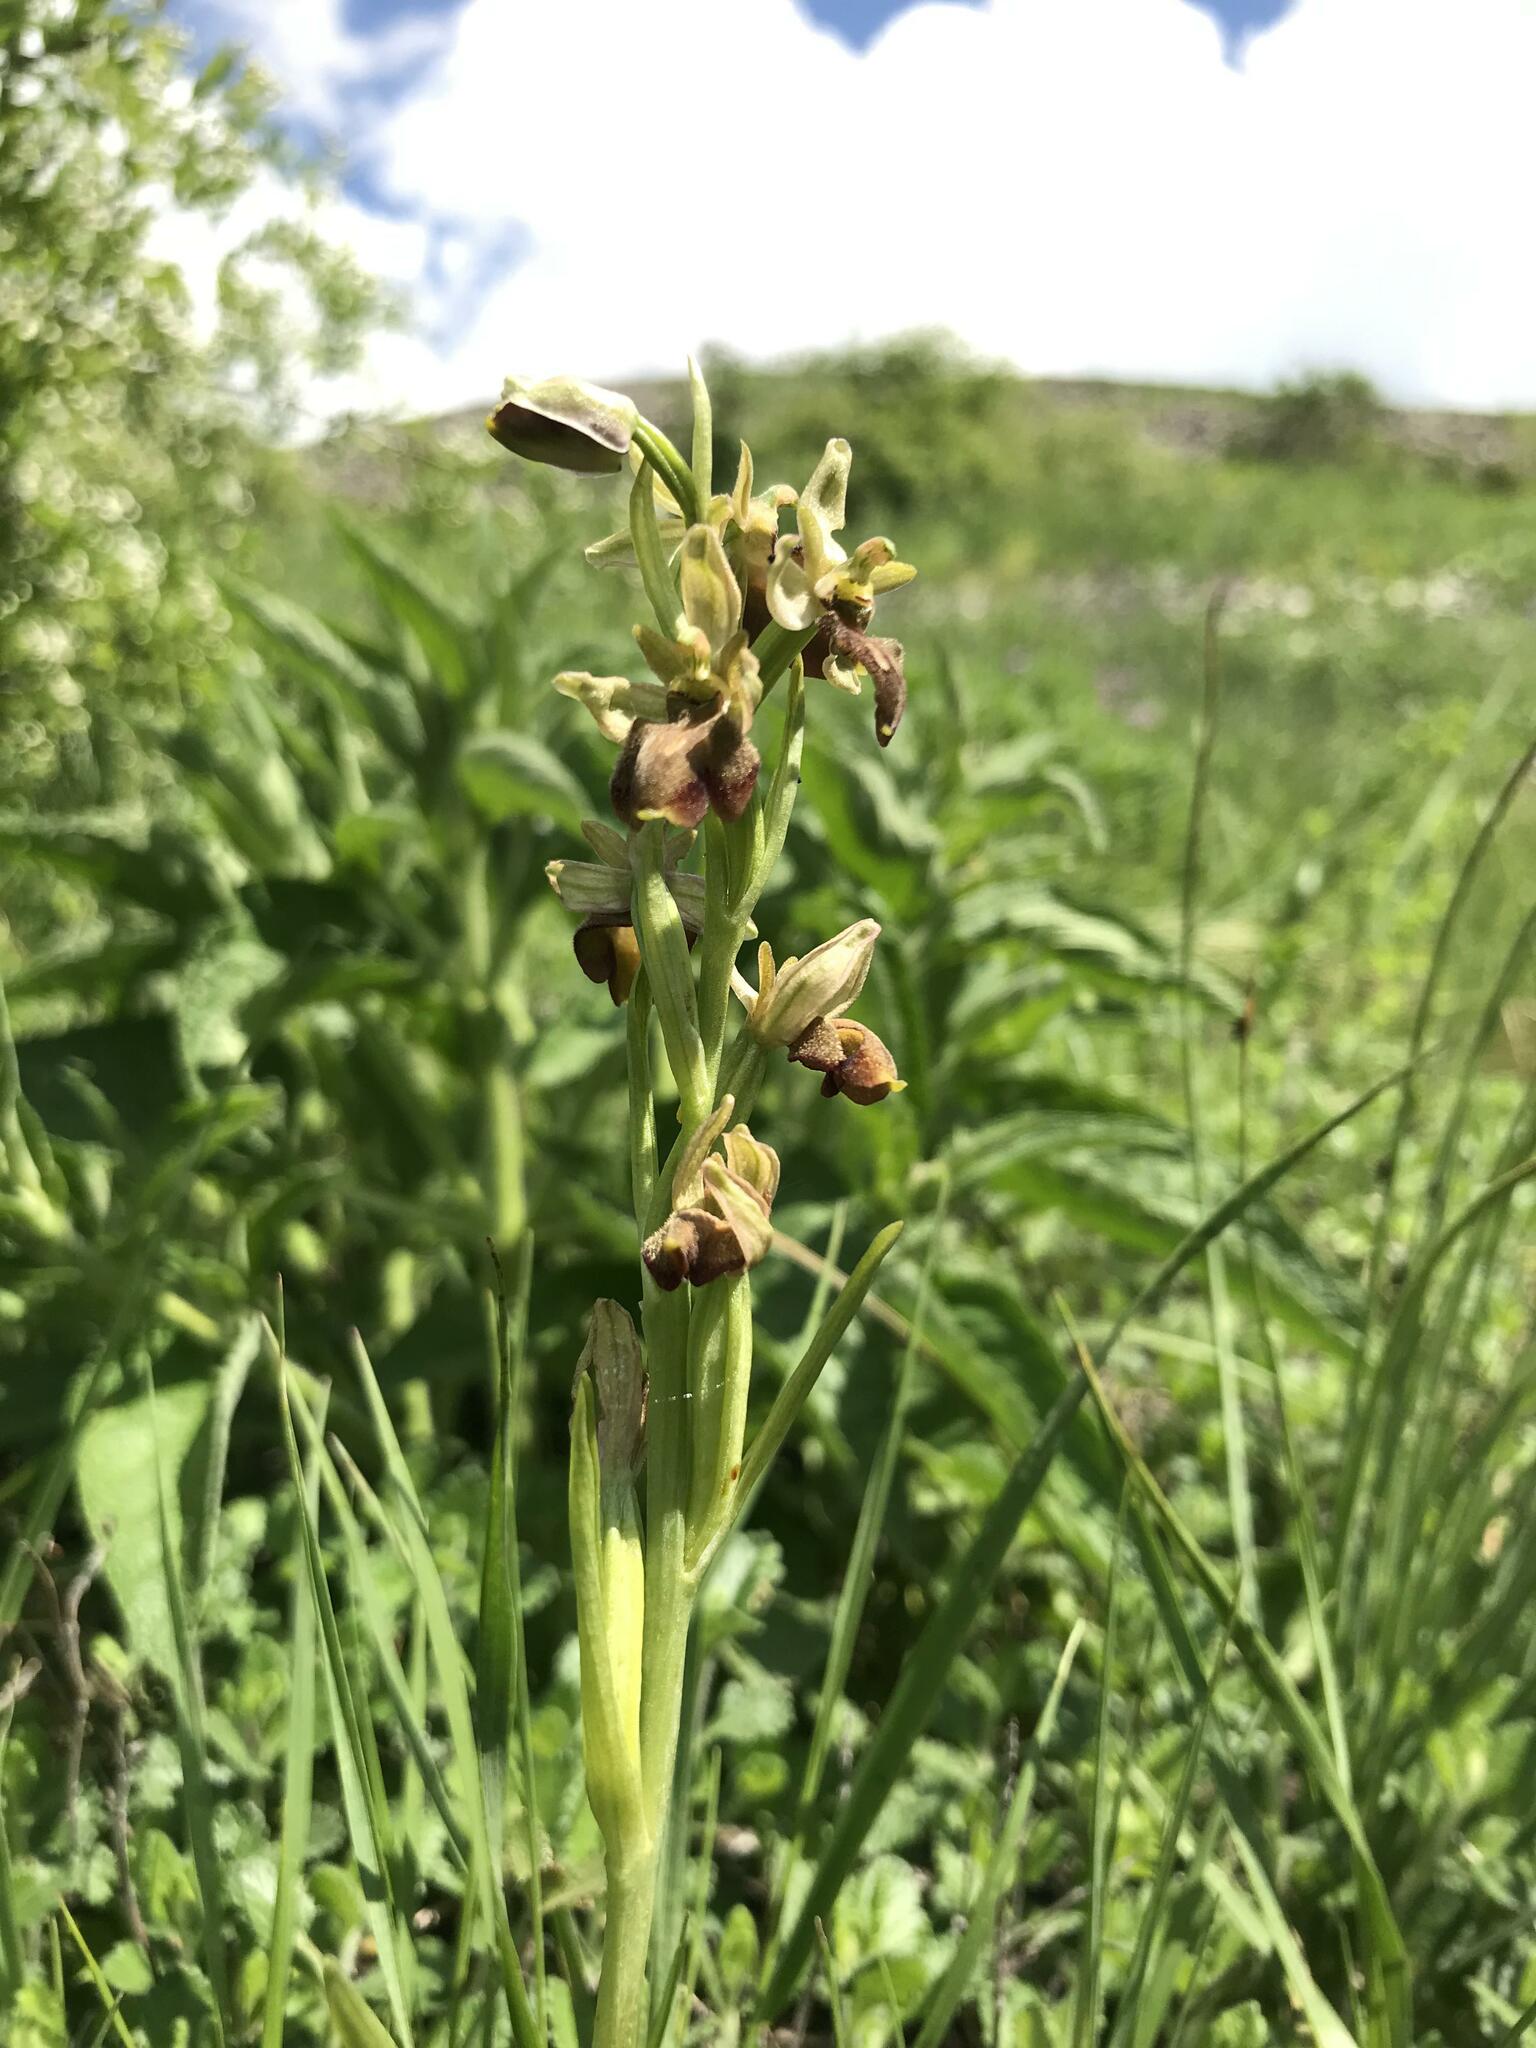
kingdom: Plantae
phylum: Tracheophyta
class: Liliopsida
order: Asparagales
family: Orchidaceae
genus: Ophrys
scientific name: Ophrys sphegodes
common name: Early spider-orchid
